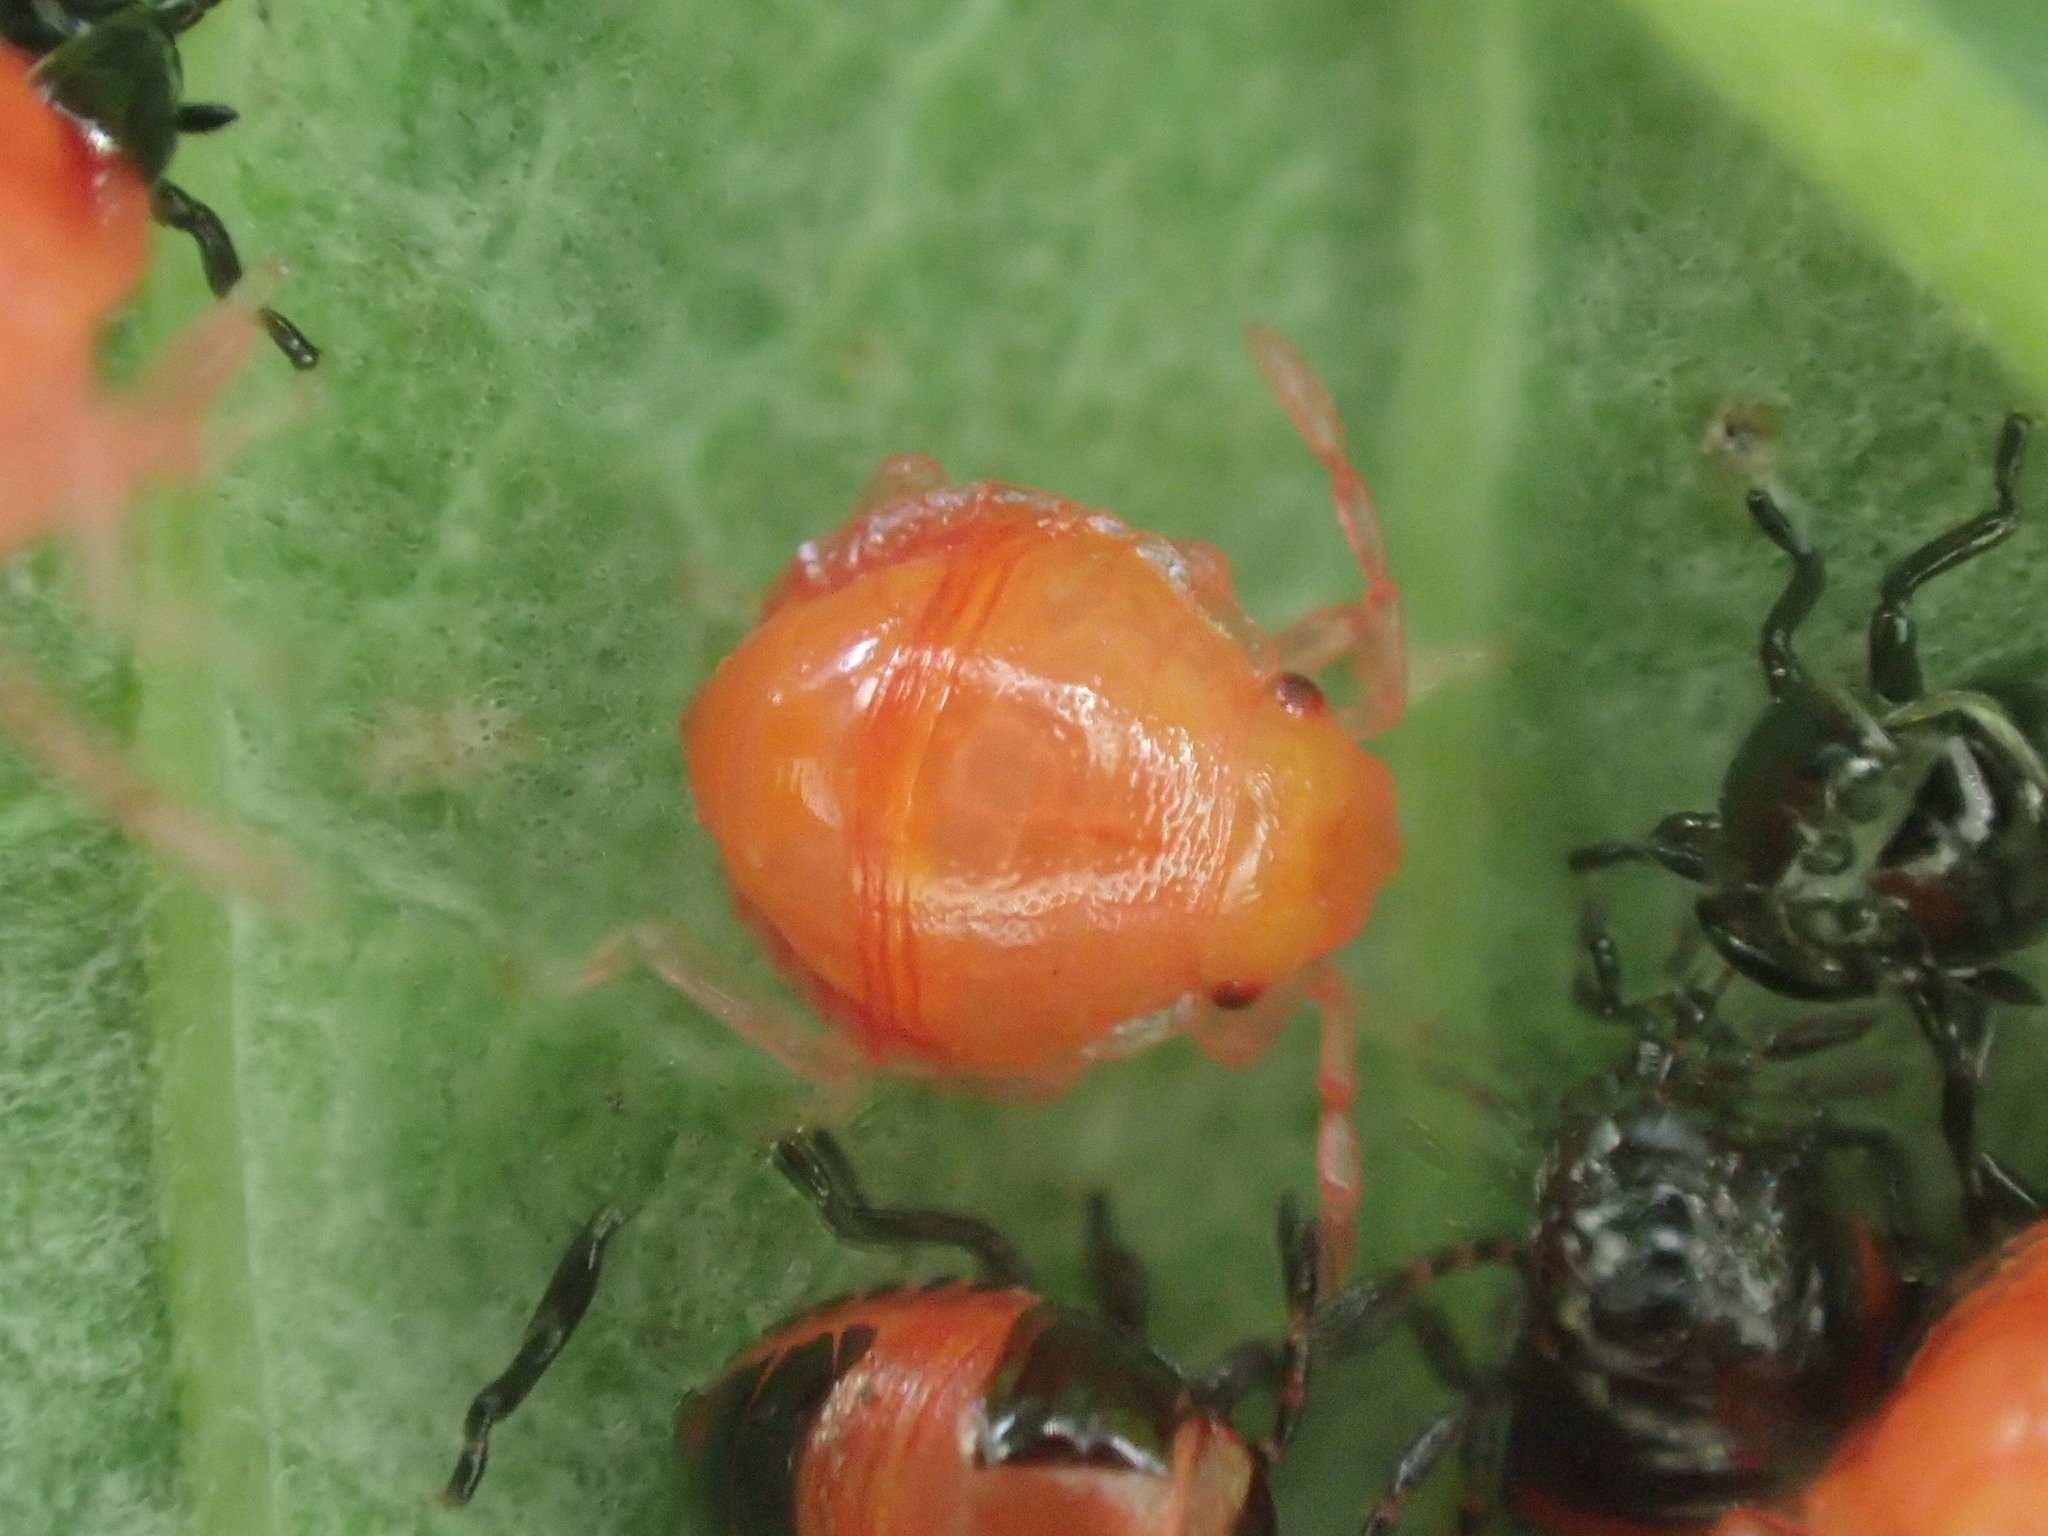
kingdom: Animalia
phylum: Arthropoda
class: Insecta
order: Hemiptera
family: Scutelleridae
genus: Scutiphora
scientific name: Scutiphora pedicellata
